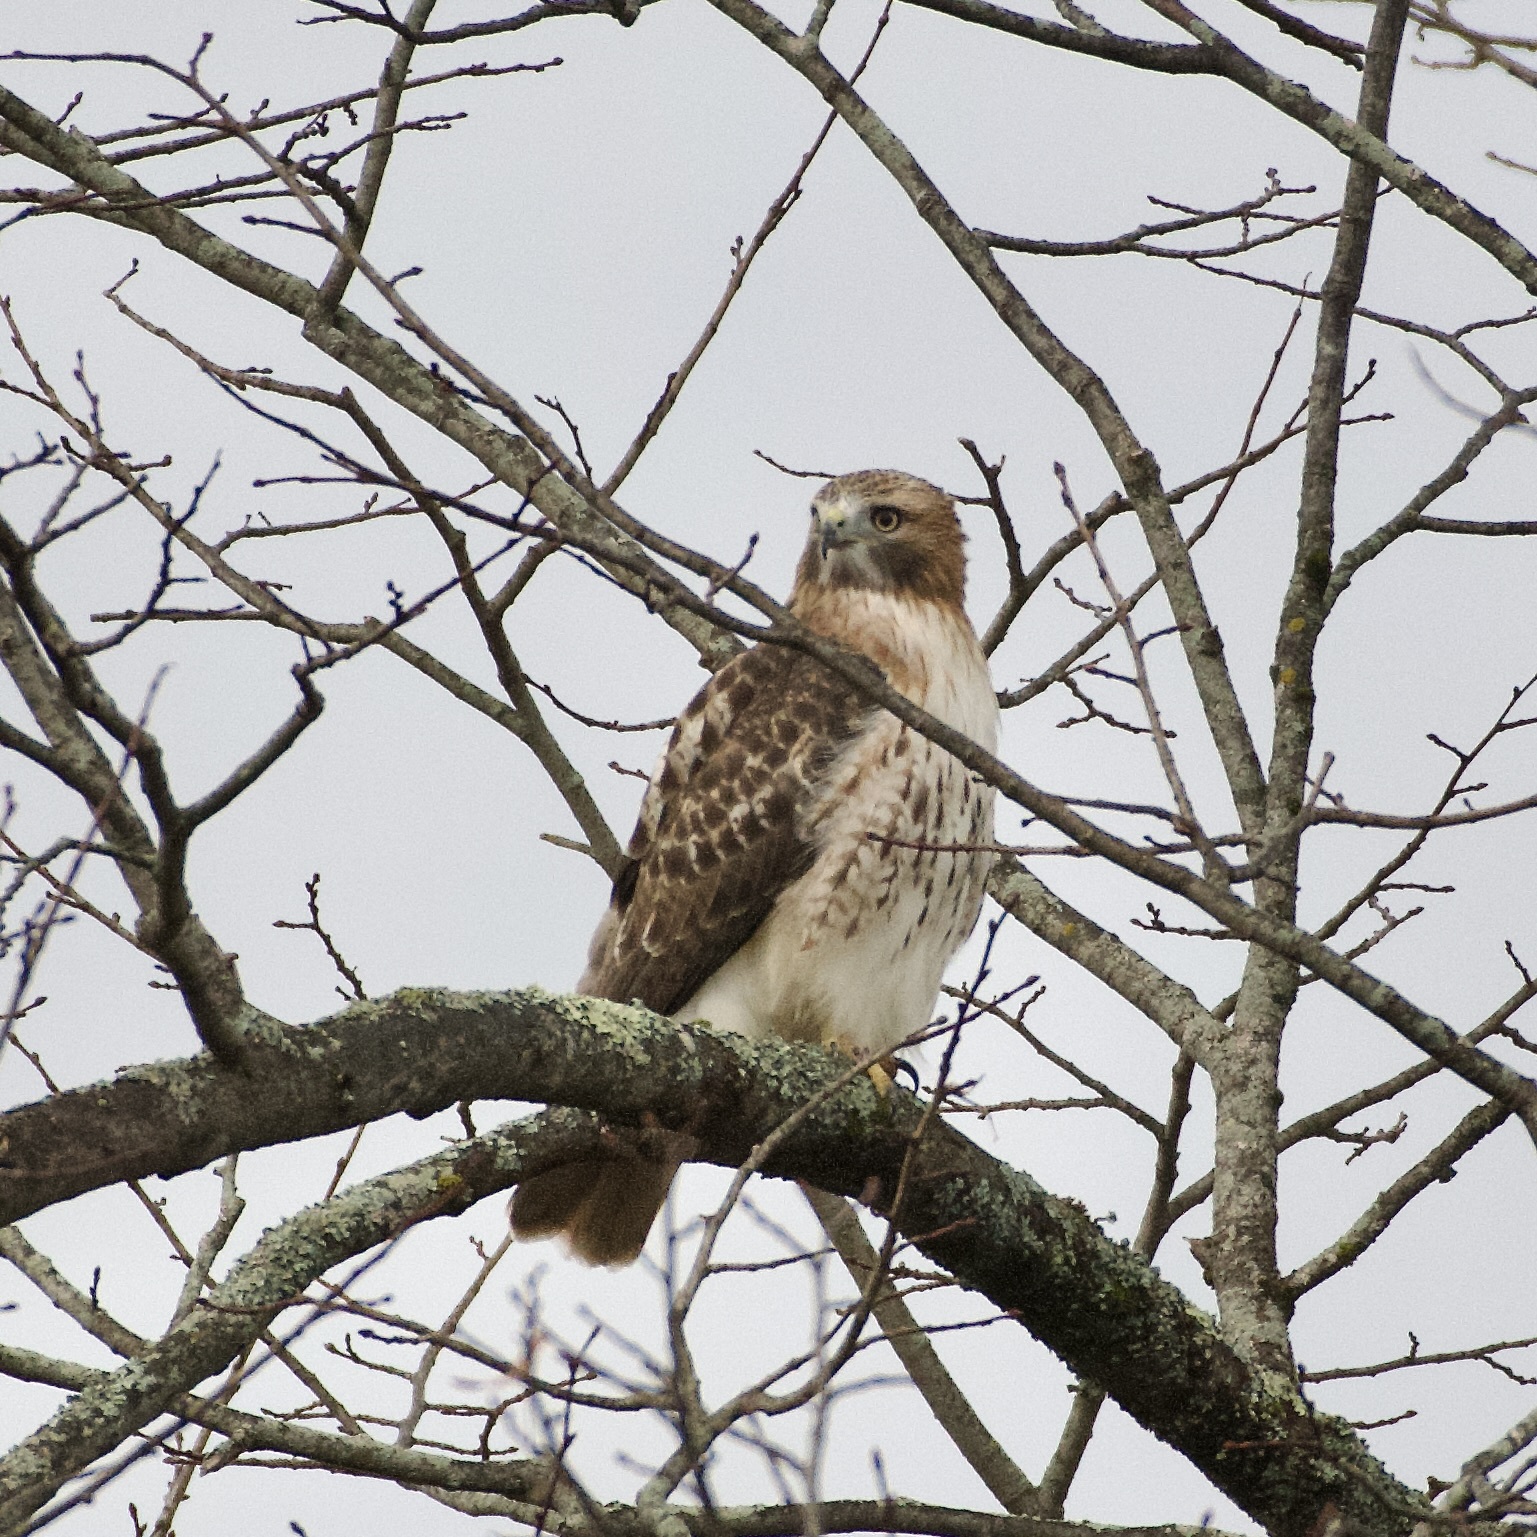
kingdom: Animalia
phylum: Chordata
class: Aves
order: Accipitriformes
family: Accipitridae
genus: Buteo
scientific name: Buteo jamaicensis
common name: Red-tailed hawk
